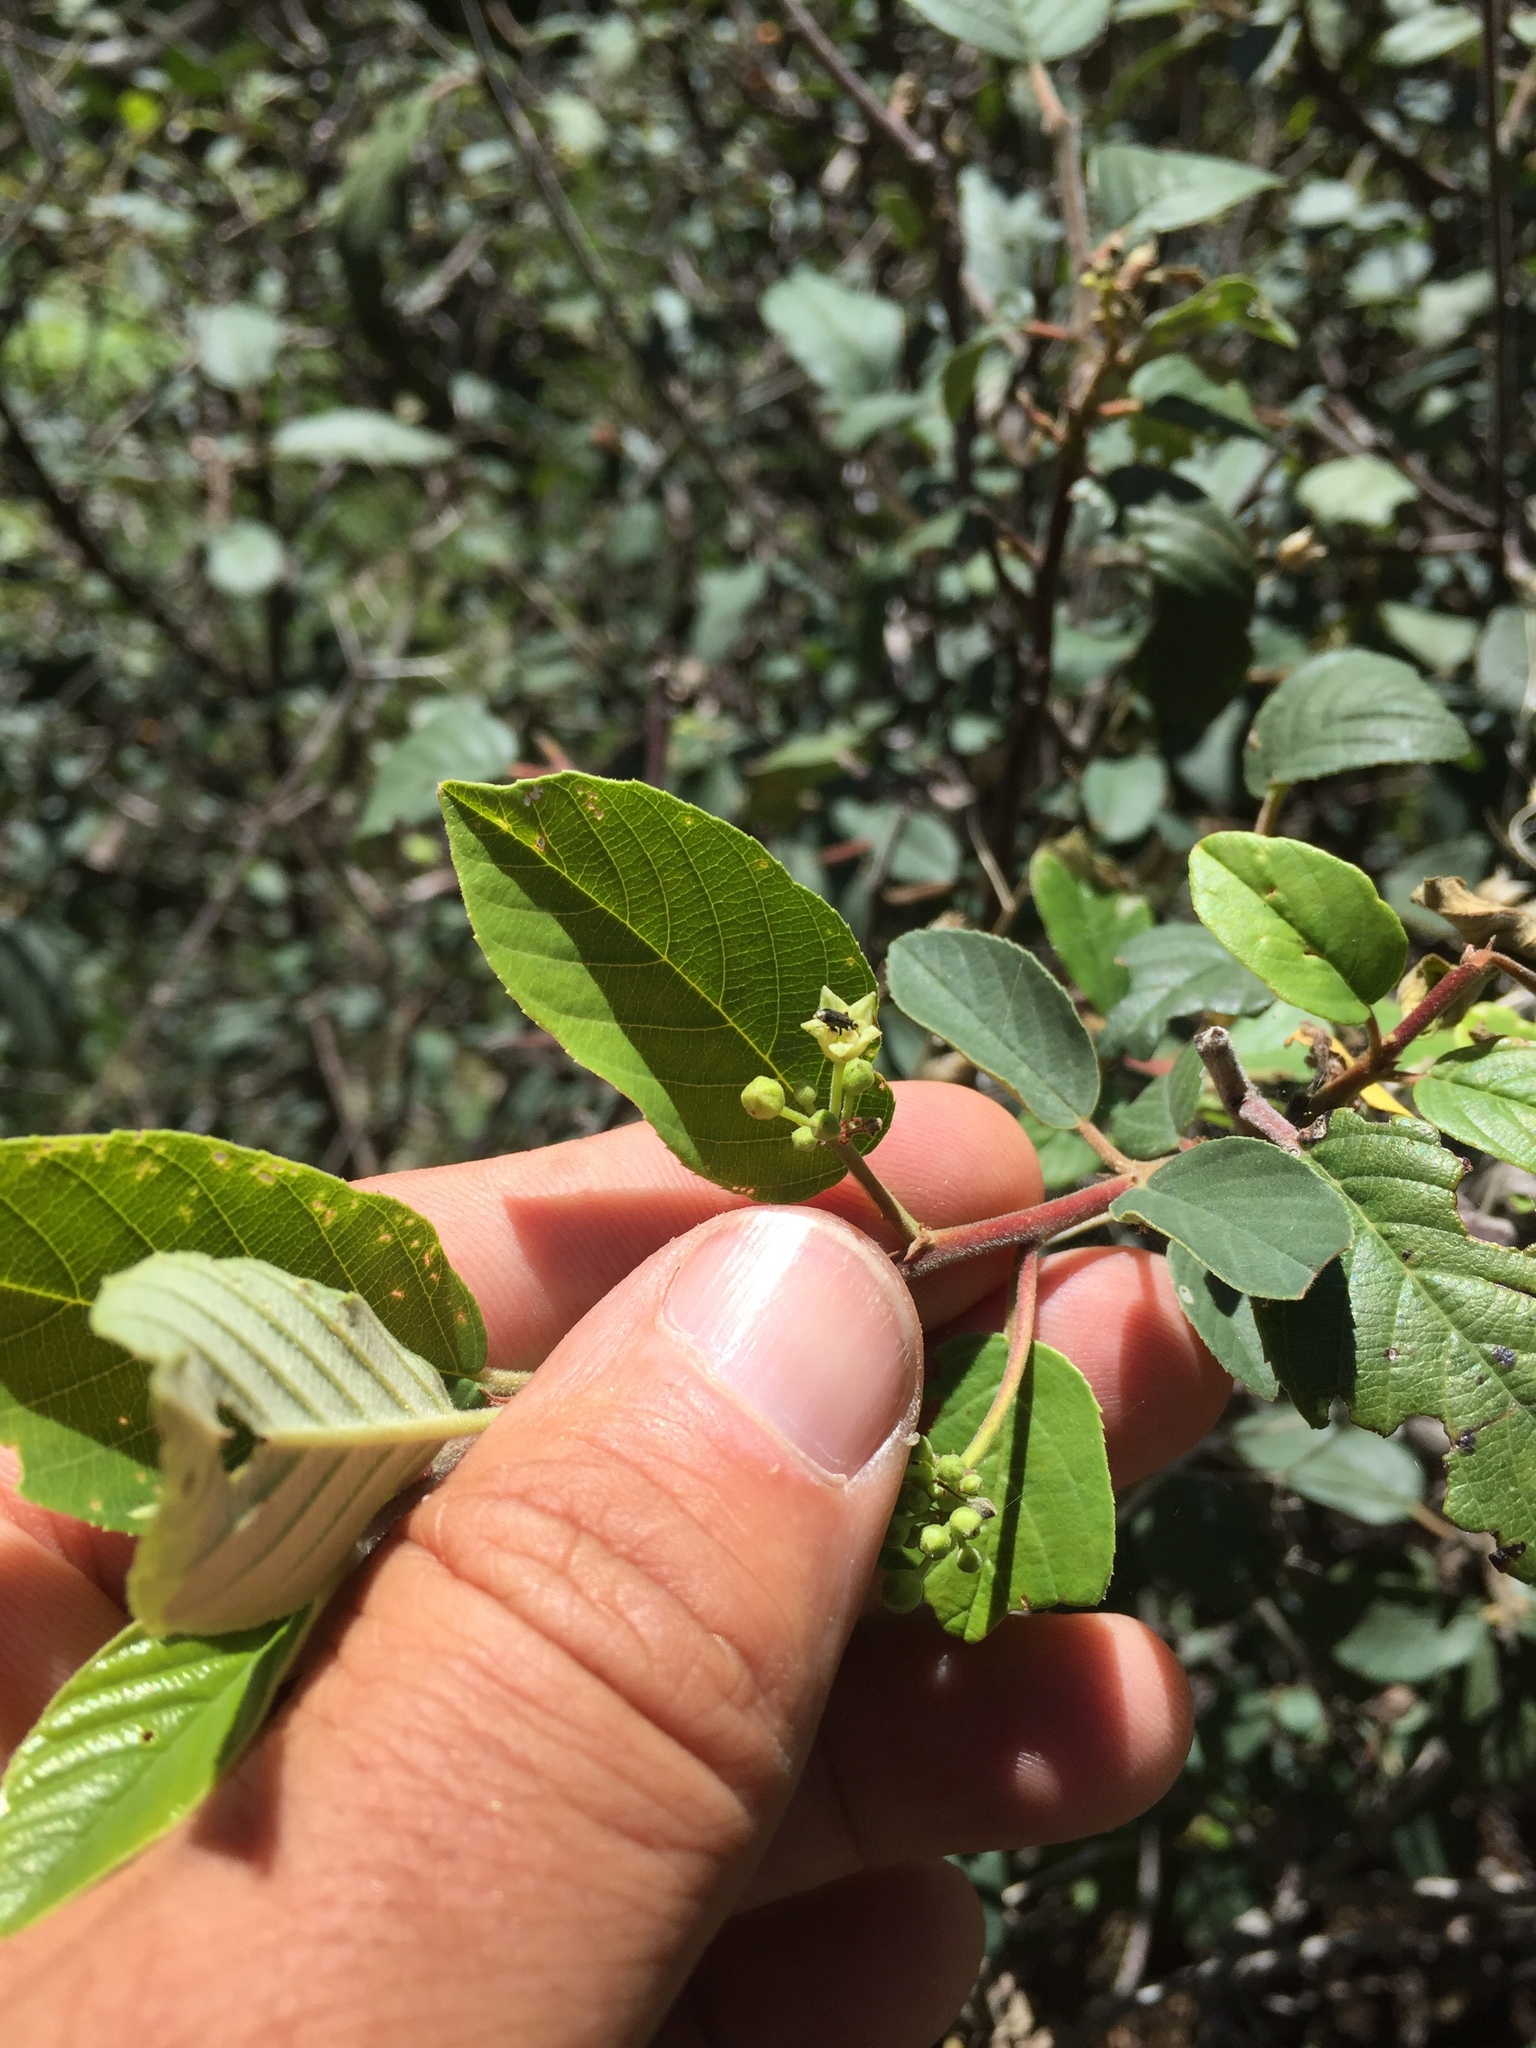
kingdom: Plantae
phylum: Tracheophyta
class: Magnoliopsida
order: Rosales
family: Rhamnaceae
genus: Frangula
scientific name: Frangula californica
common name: California buckthorn
